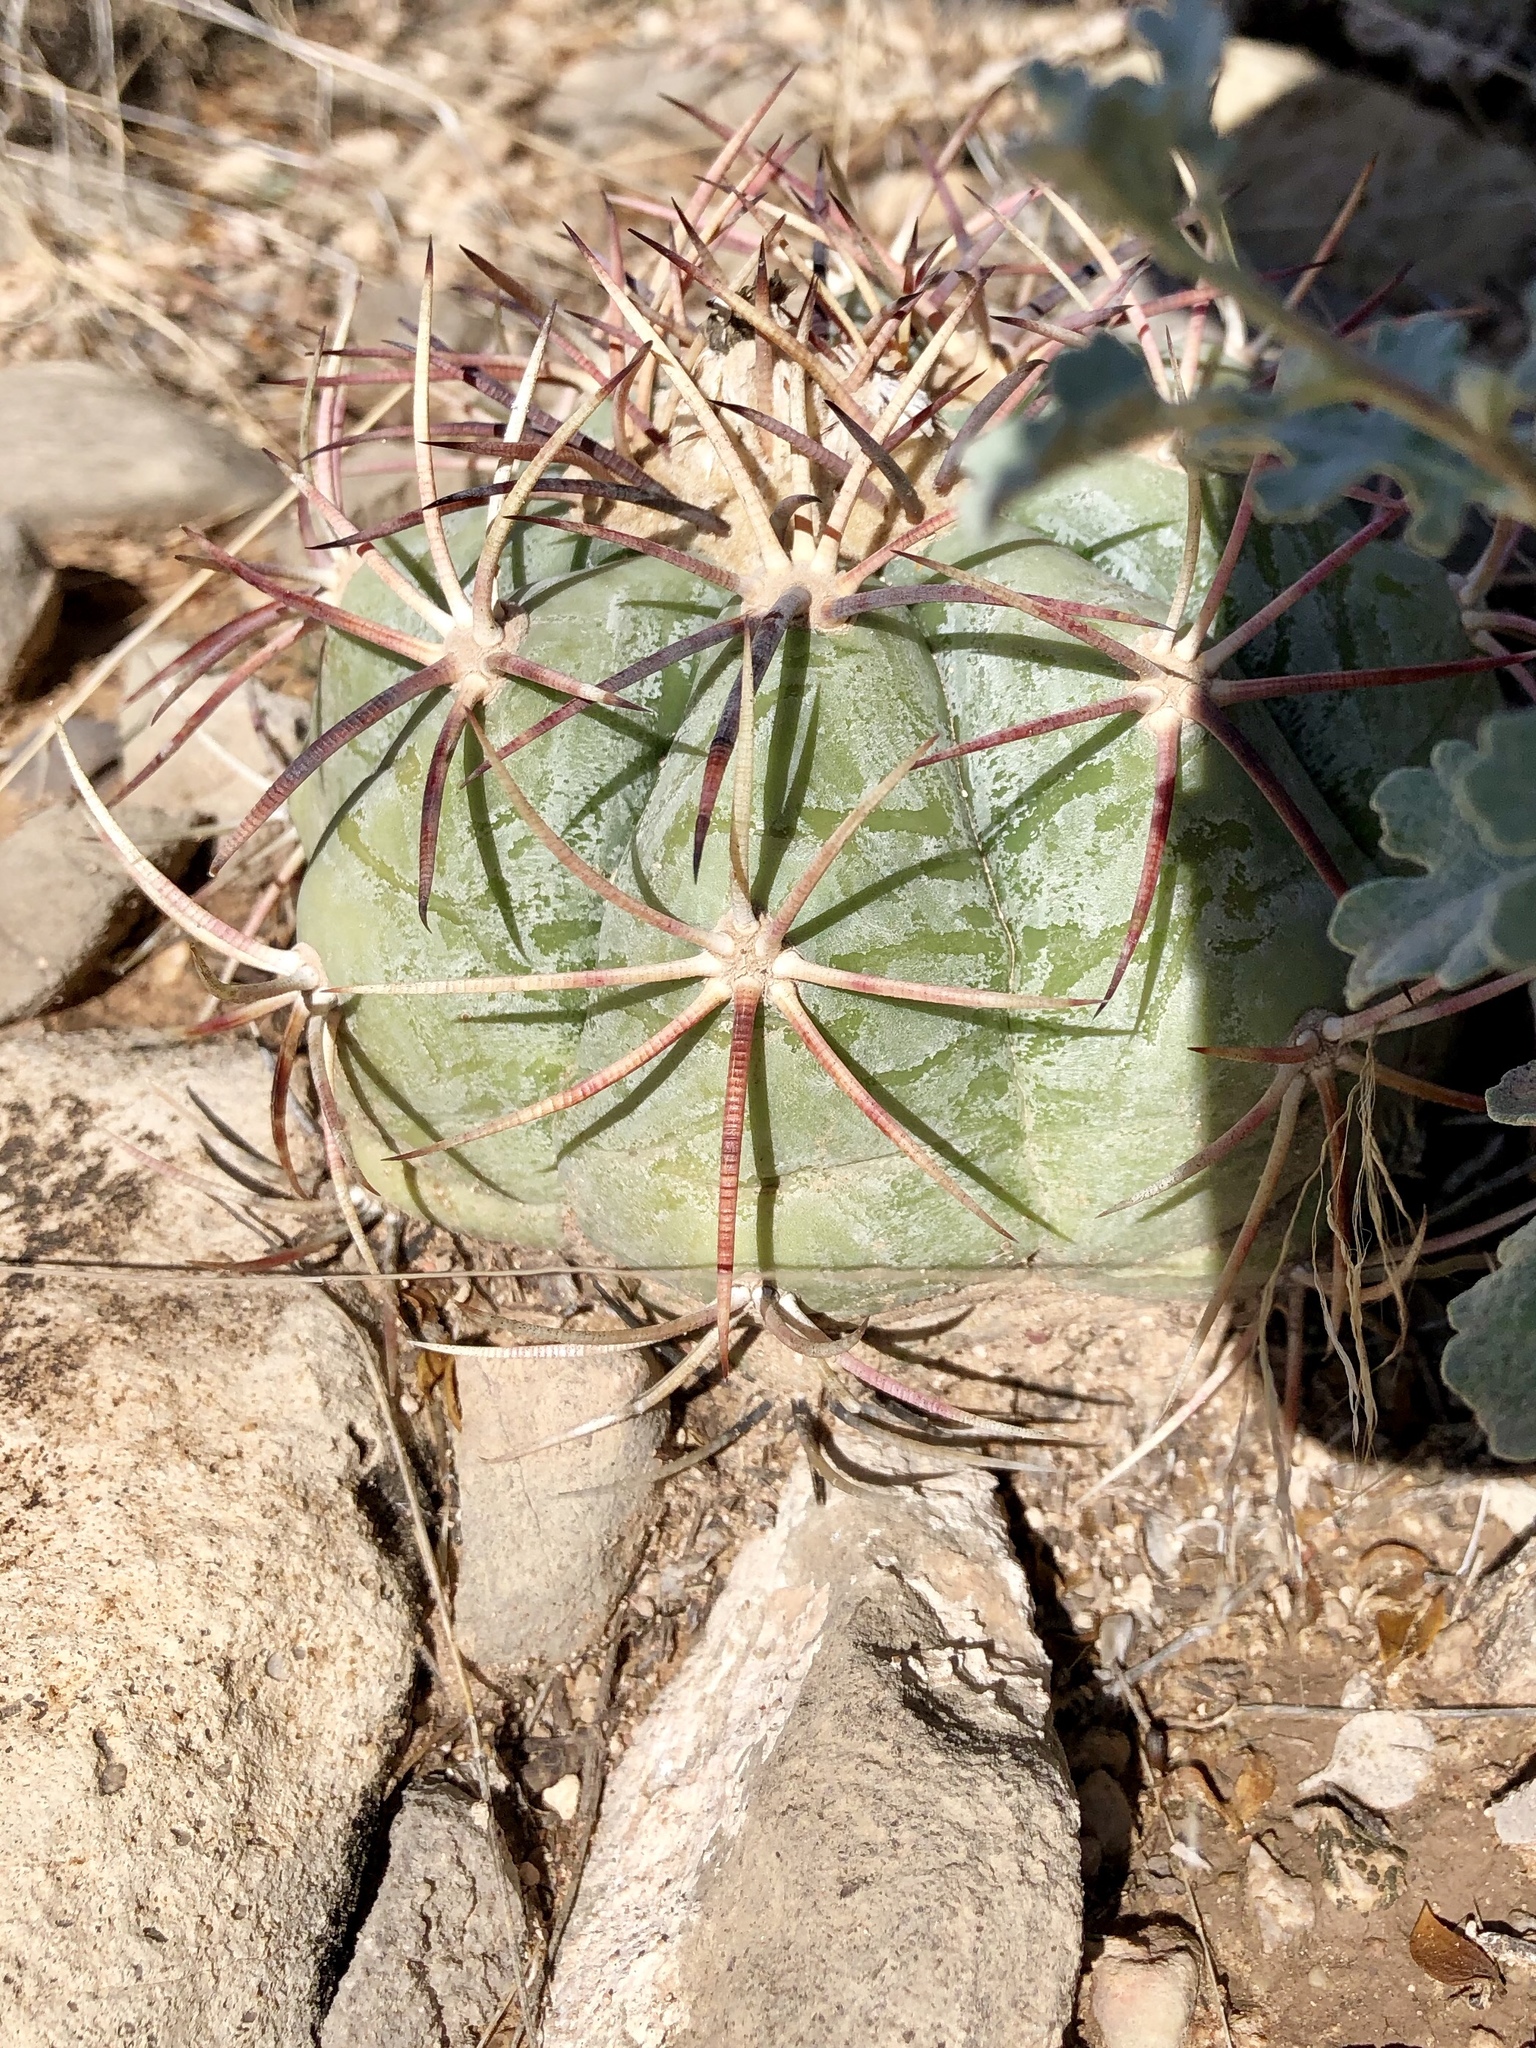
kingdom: Plantae
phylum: Tracheophyta
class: Magnoliopsida
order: Caryophyllales
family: Cactaceae
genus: Echinocactus
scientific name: Echinocactus horizonthalonius
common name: Devilshead
